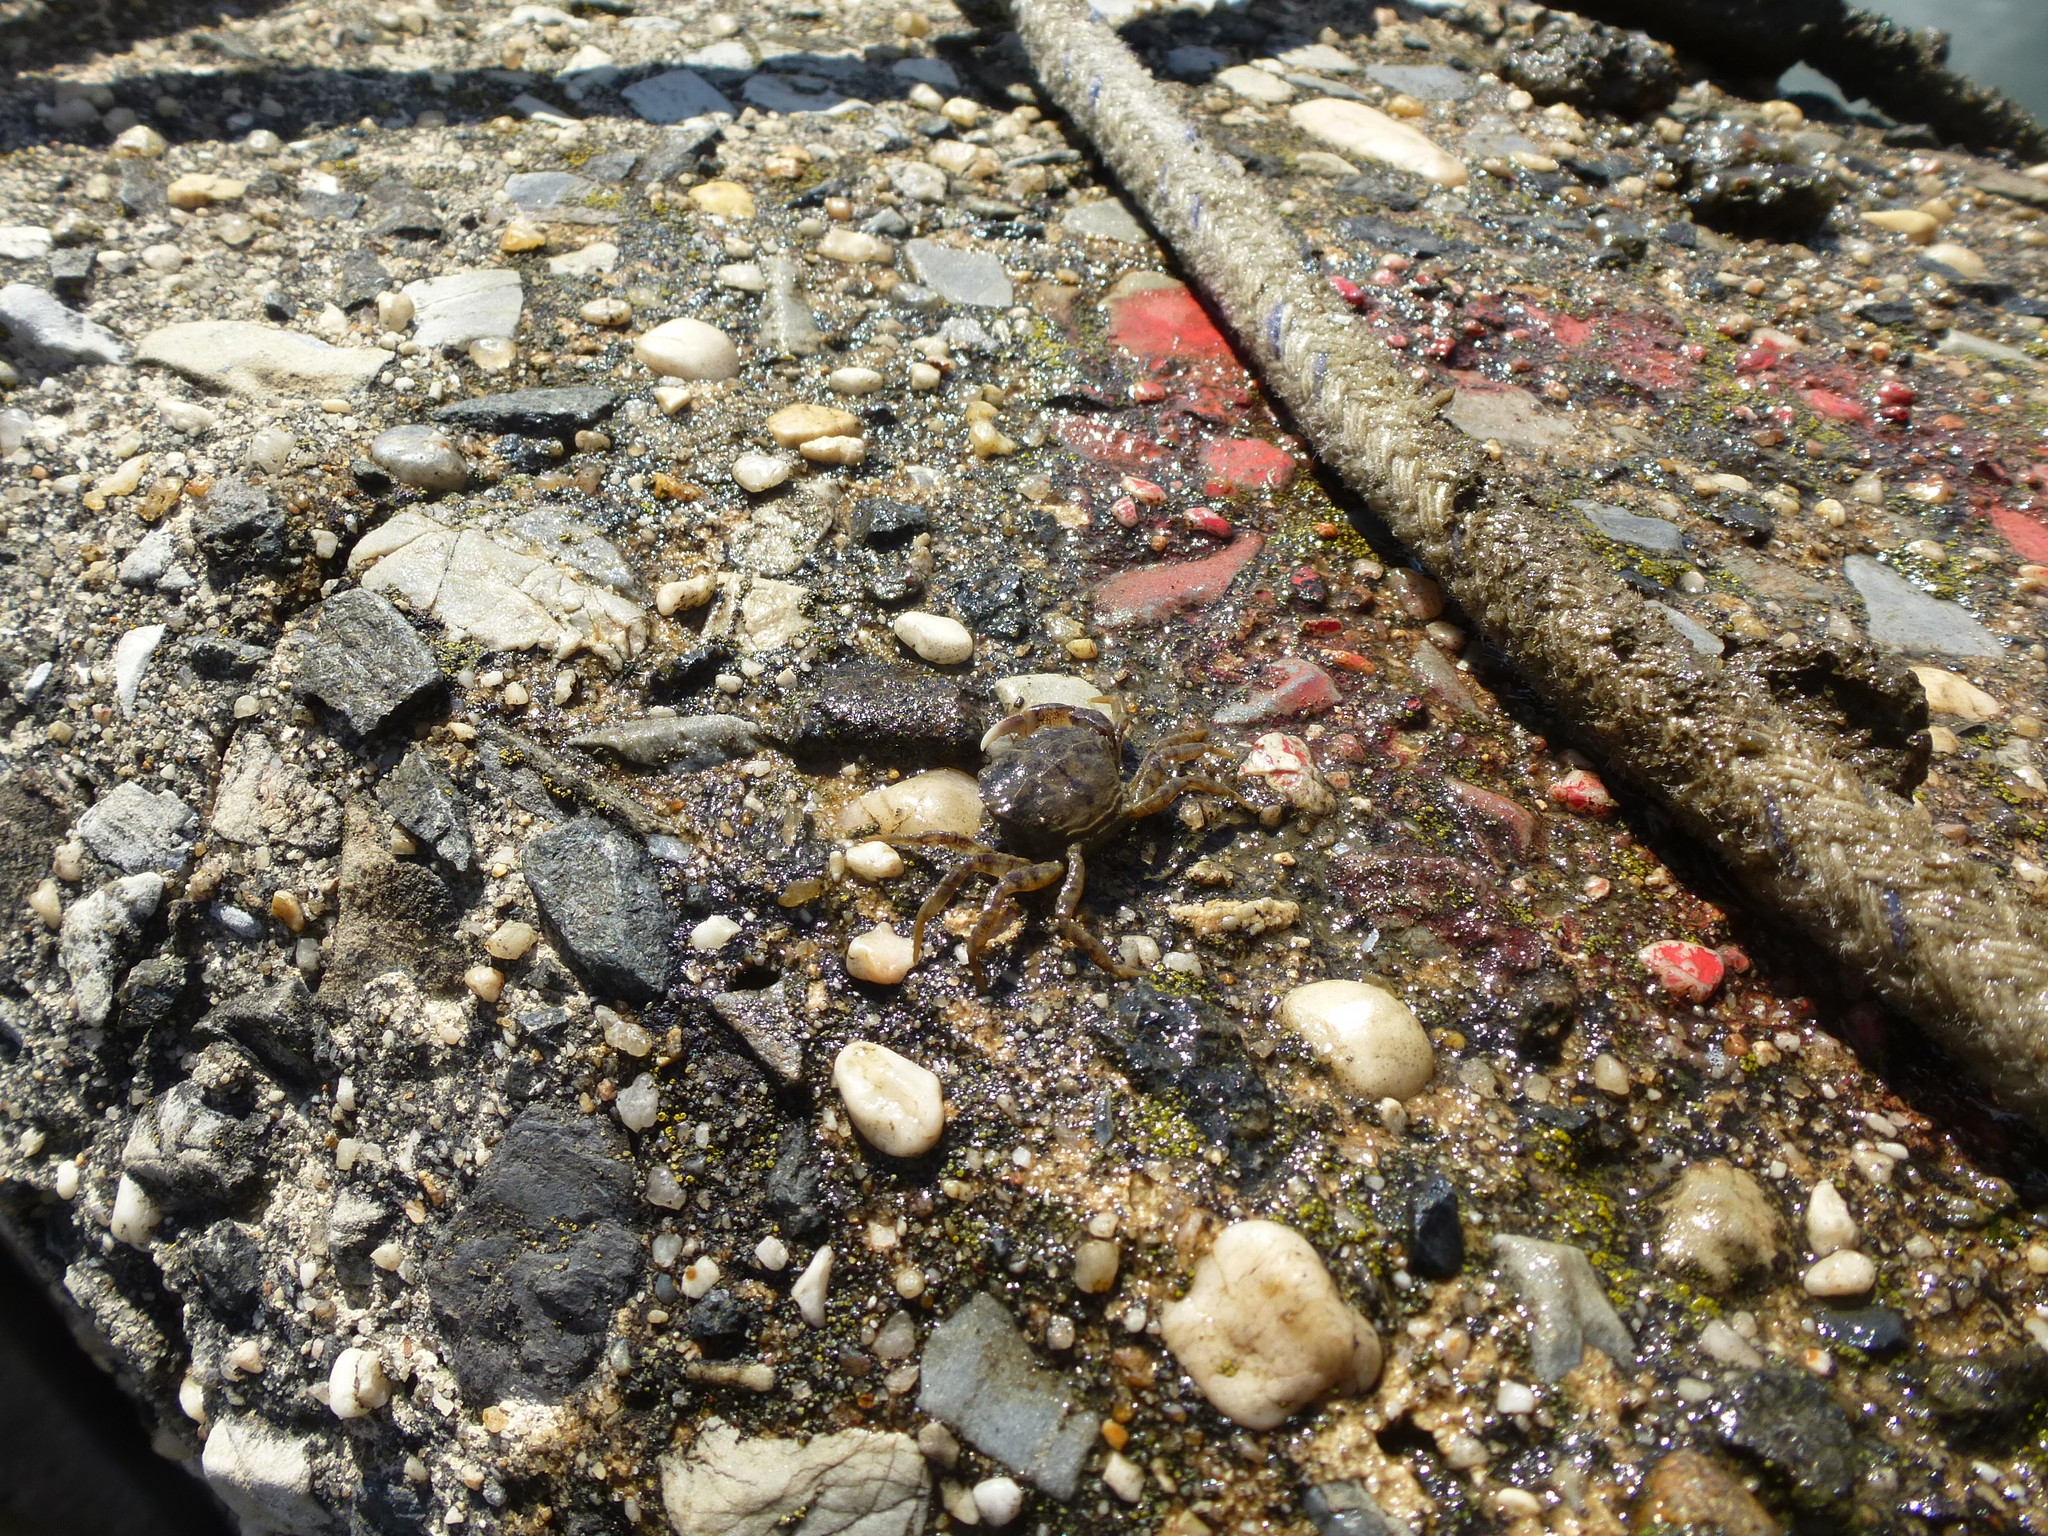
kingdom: Animalia
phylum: Arthropoda
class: Malacostraca
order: Decapoda
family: Varunidae
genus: Hemigrapsus
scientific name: Hemigrapsus sanguineus
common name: Asian shore crab
